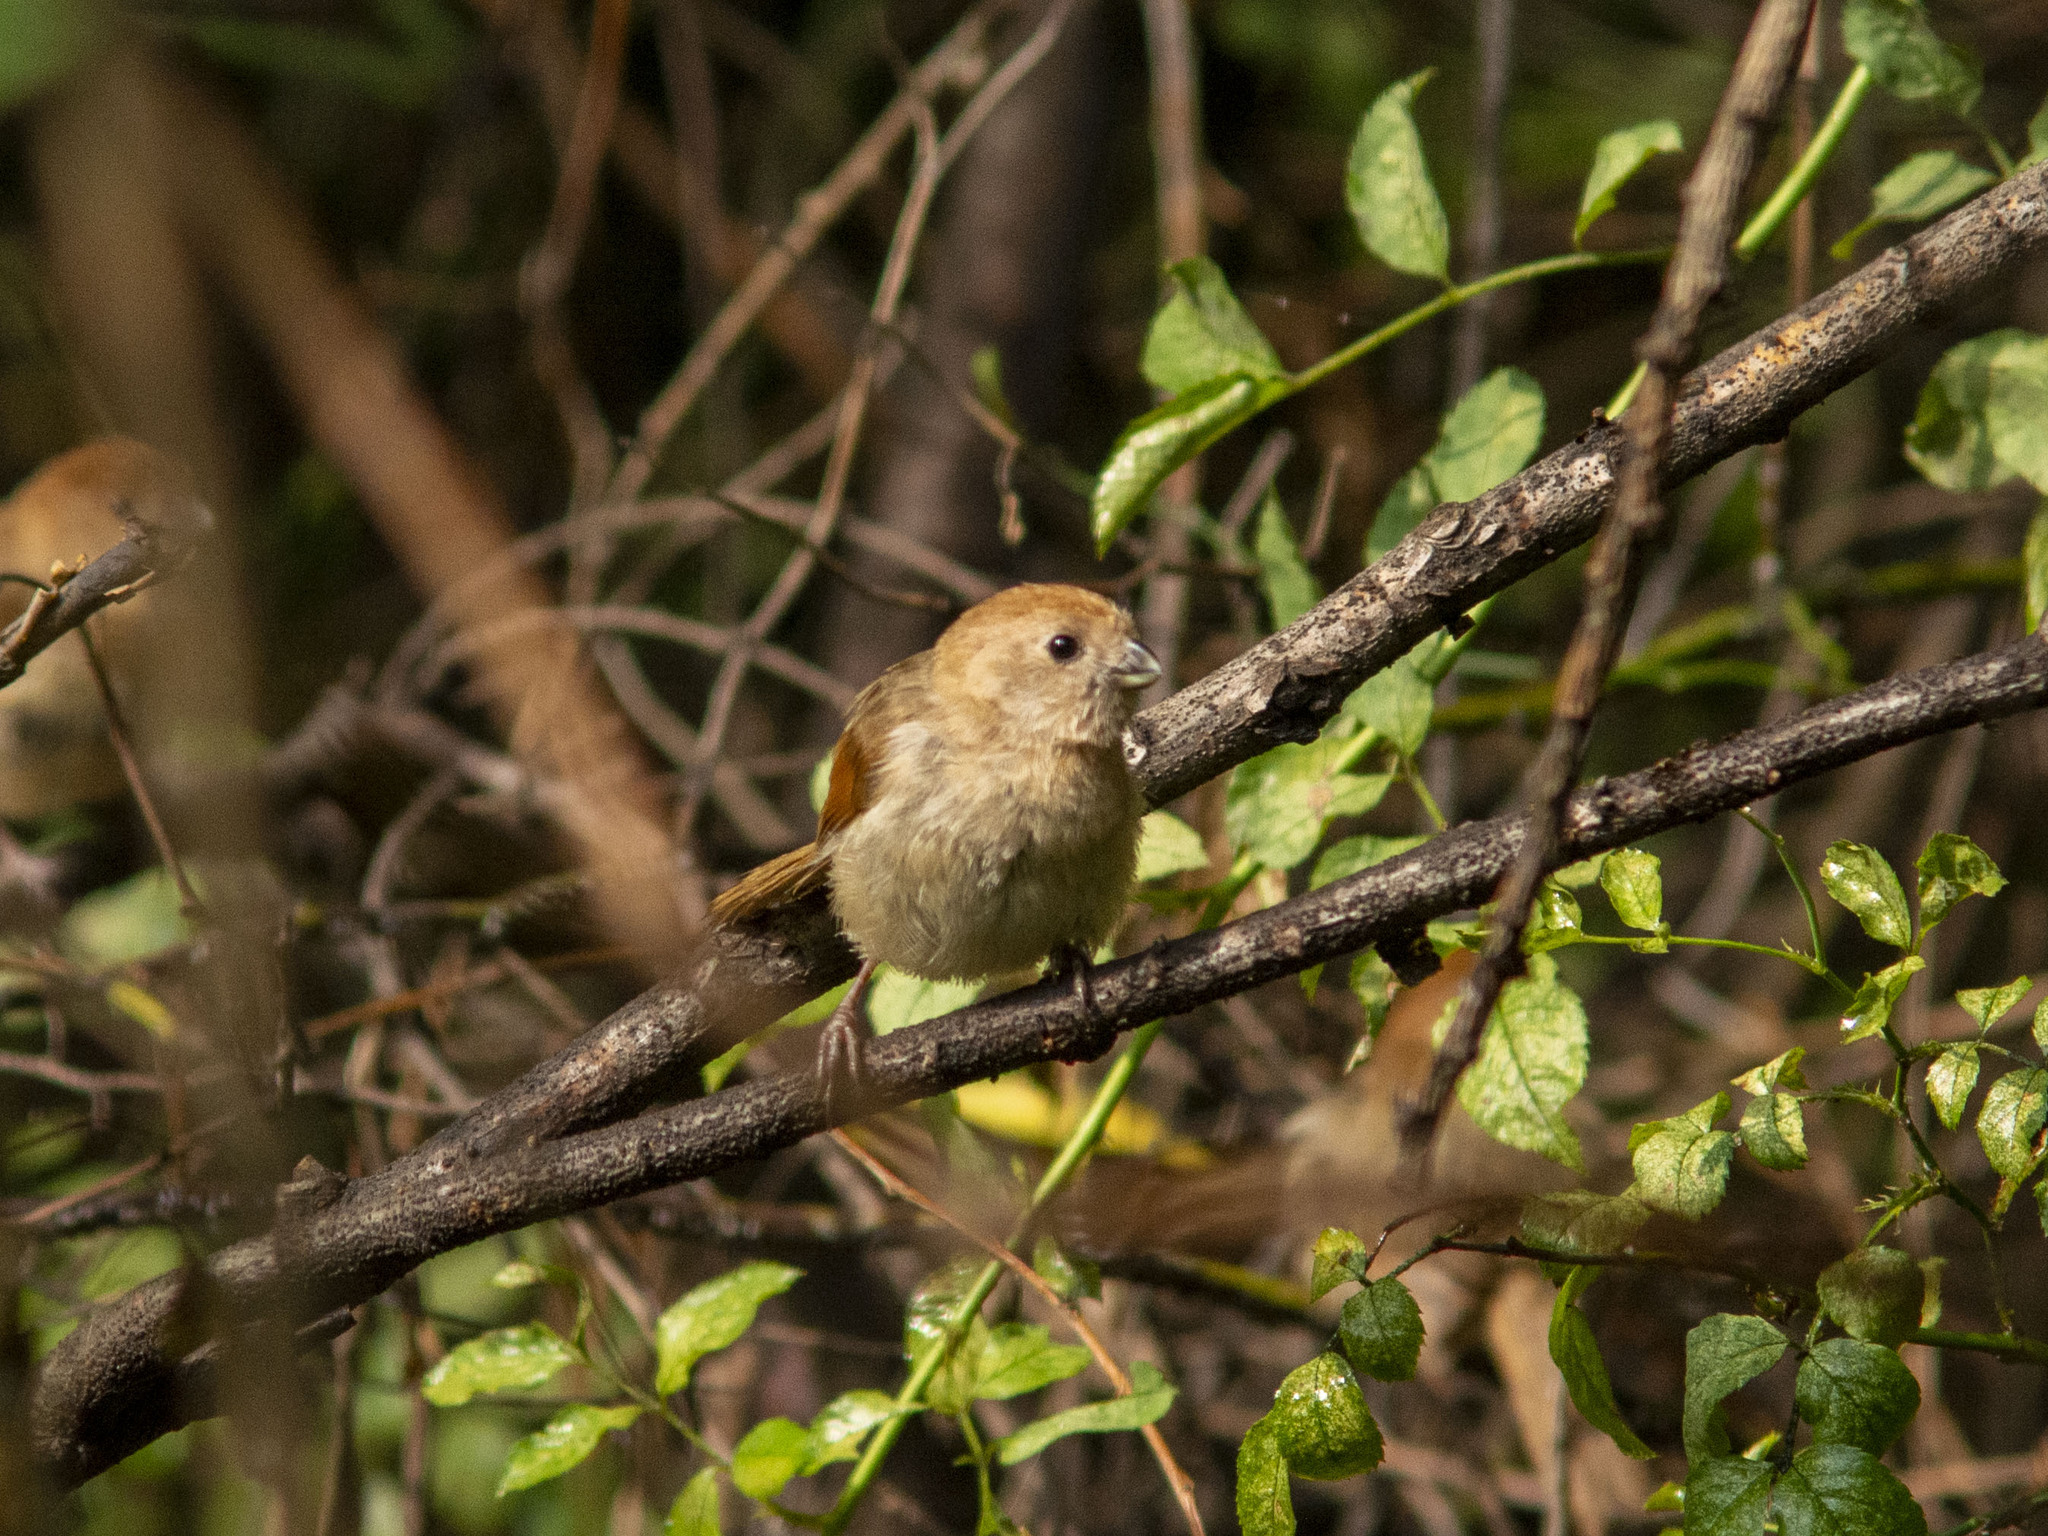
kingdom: Animalia
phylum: Chordata
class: Aves
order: Passeriformes
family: Sylviidae
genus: Sinosuthora
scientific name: Sinosuthora webbiana
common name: Vinous-throated parrotbill
